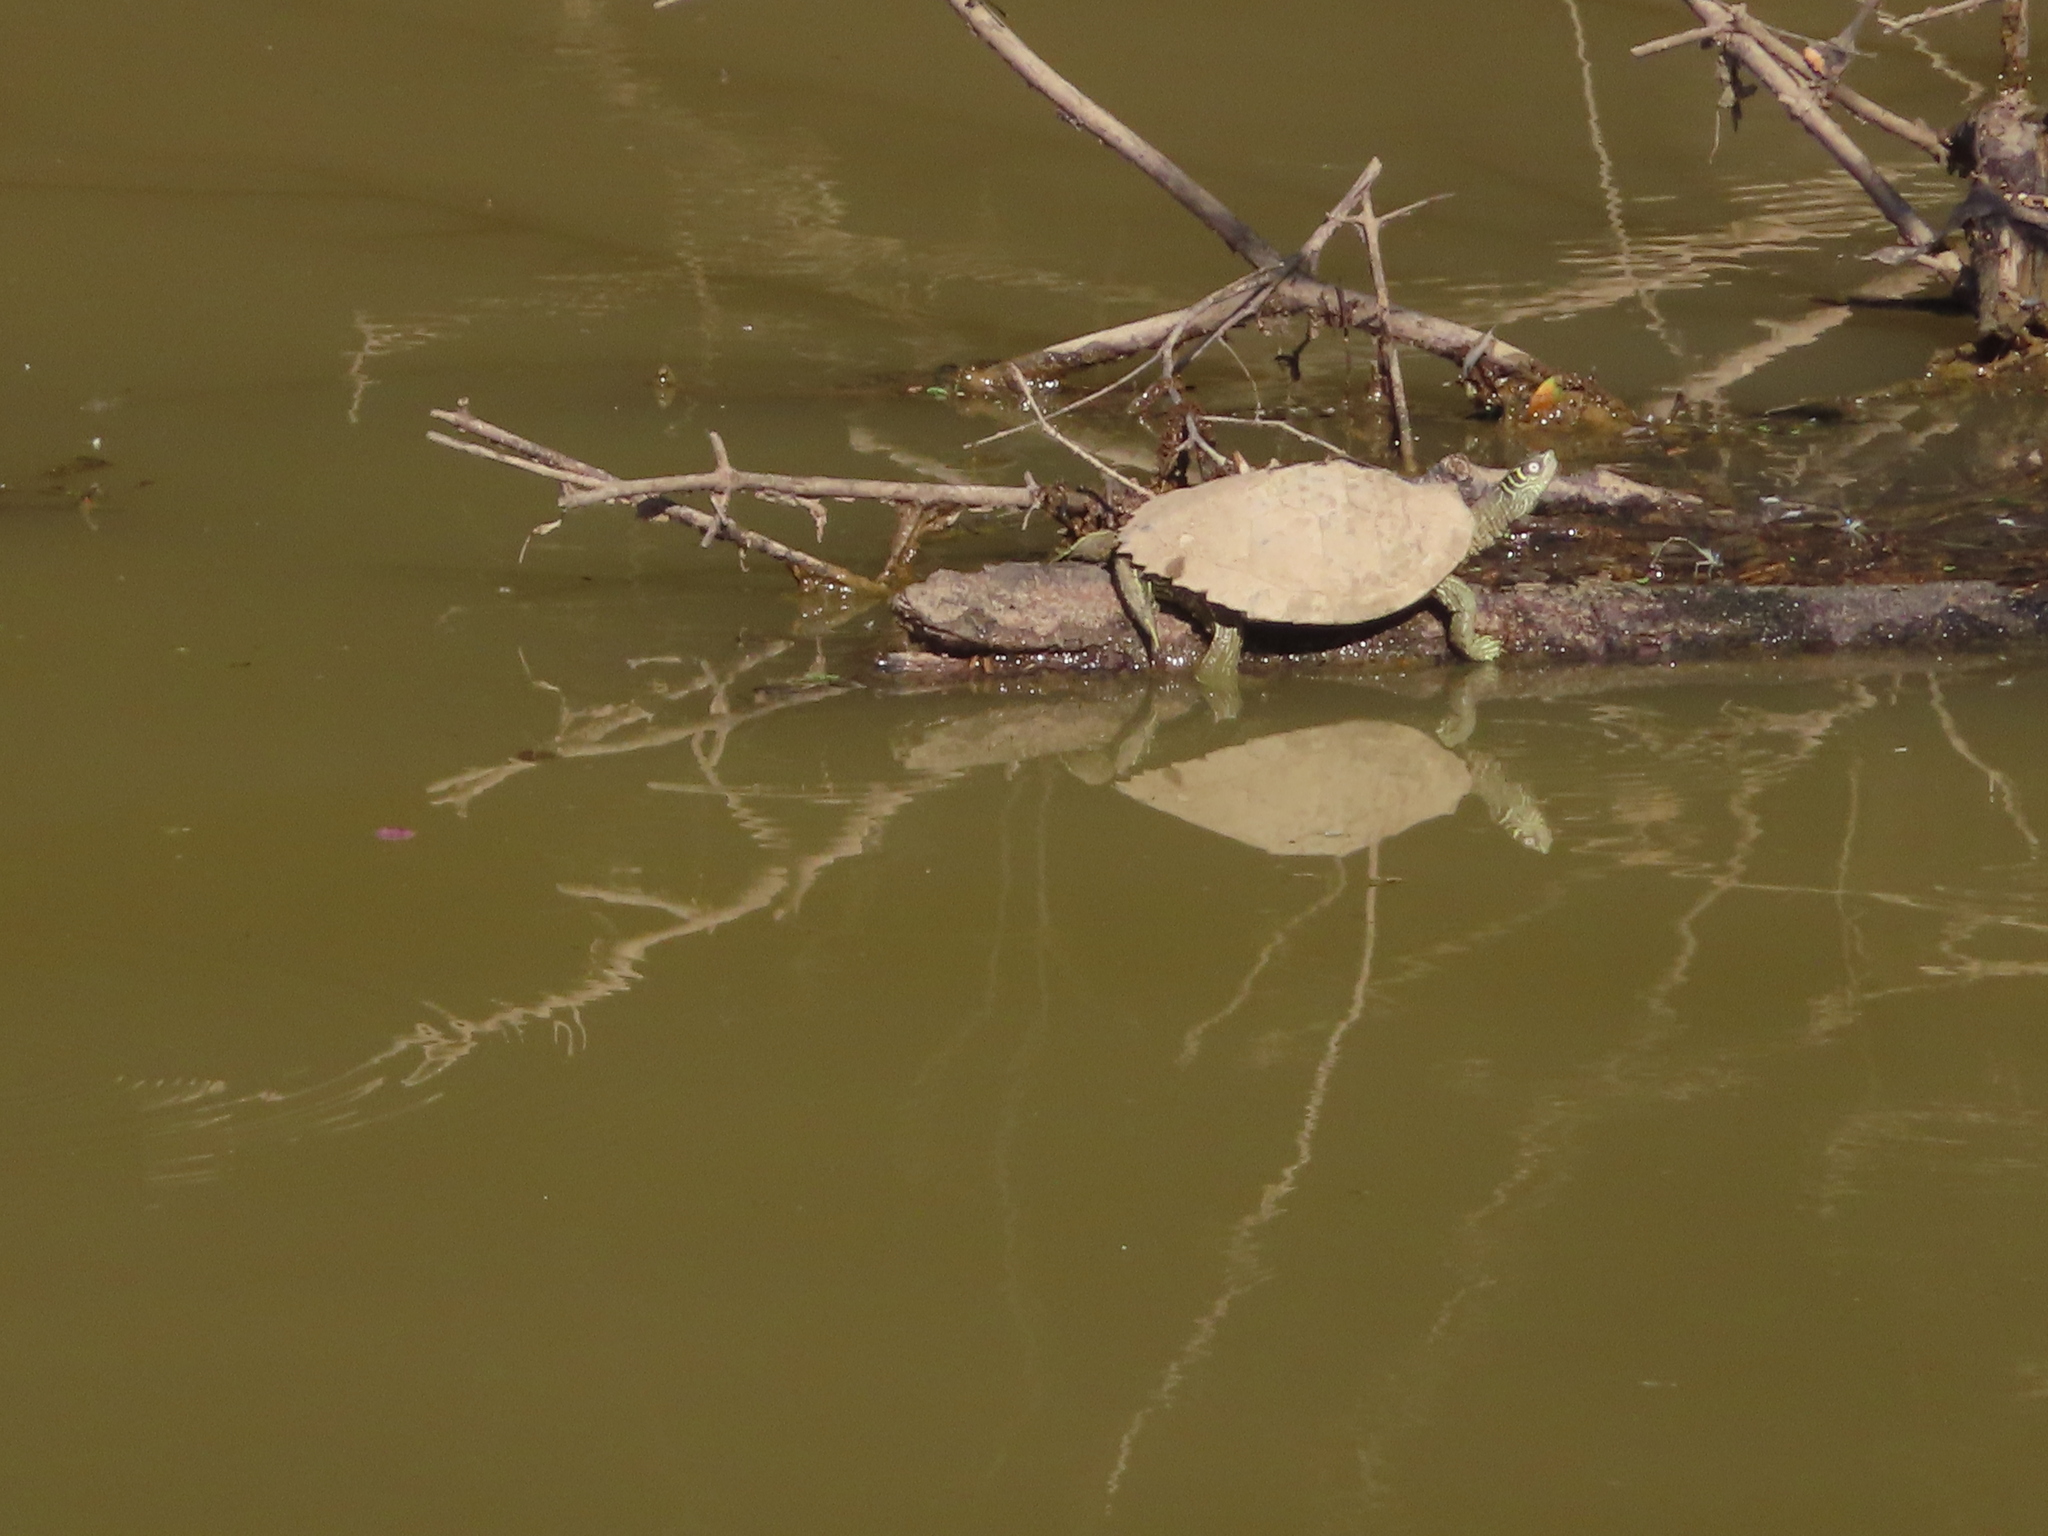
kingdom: Animalia
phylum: Chordata
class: Testudines
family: Emydidae
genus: Graptemys
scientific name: Graptemys pseudogeographica
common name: False map turtle
